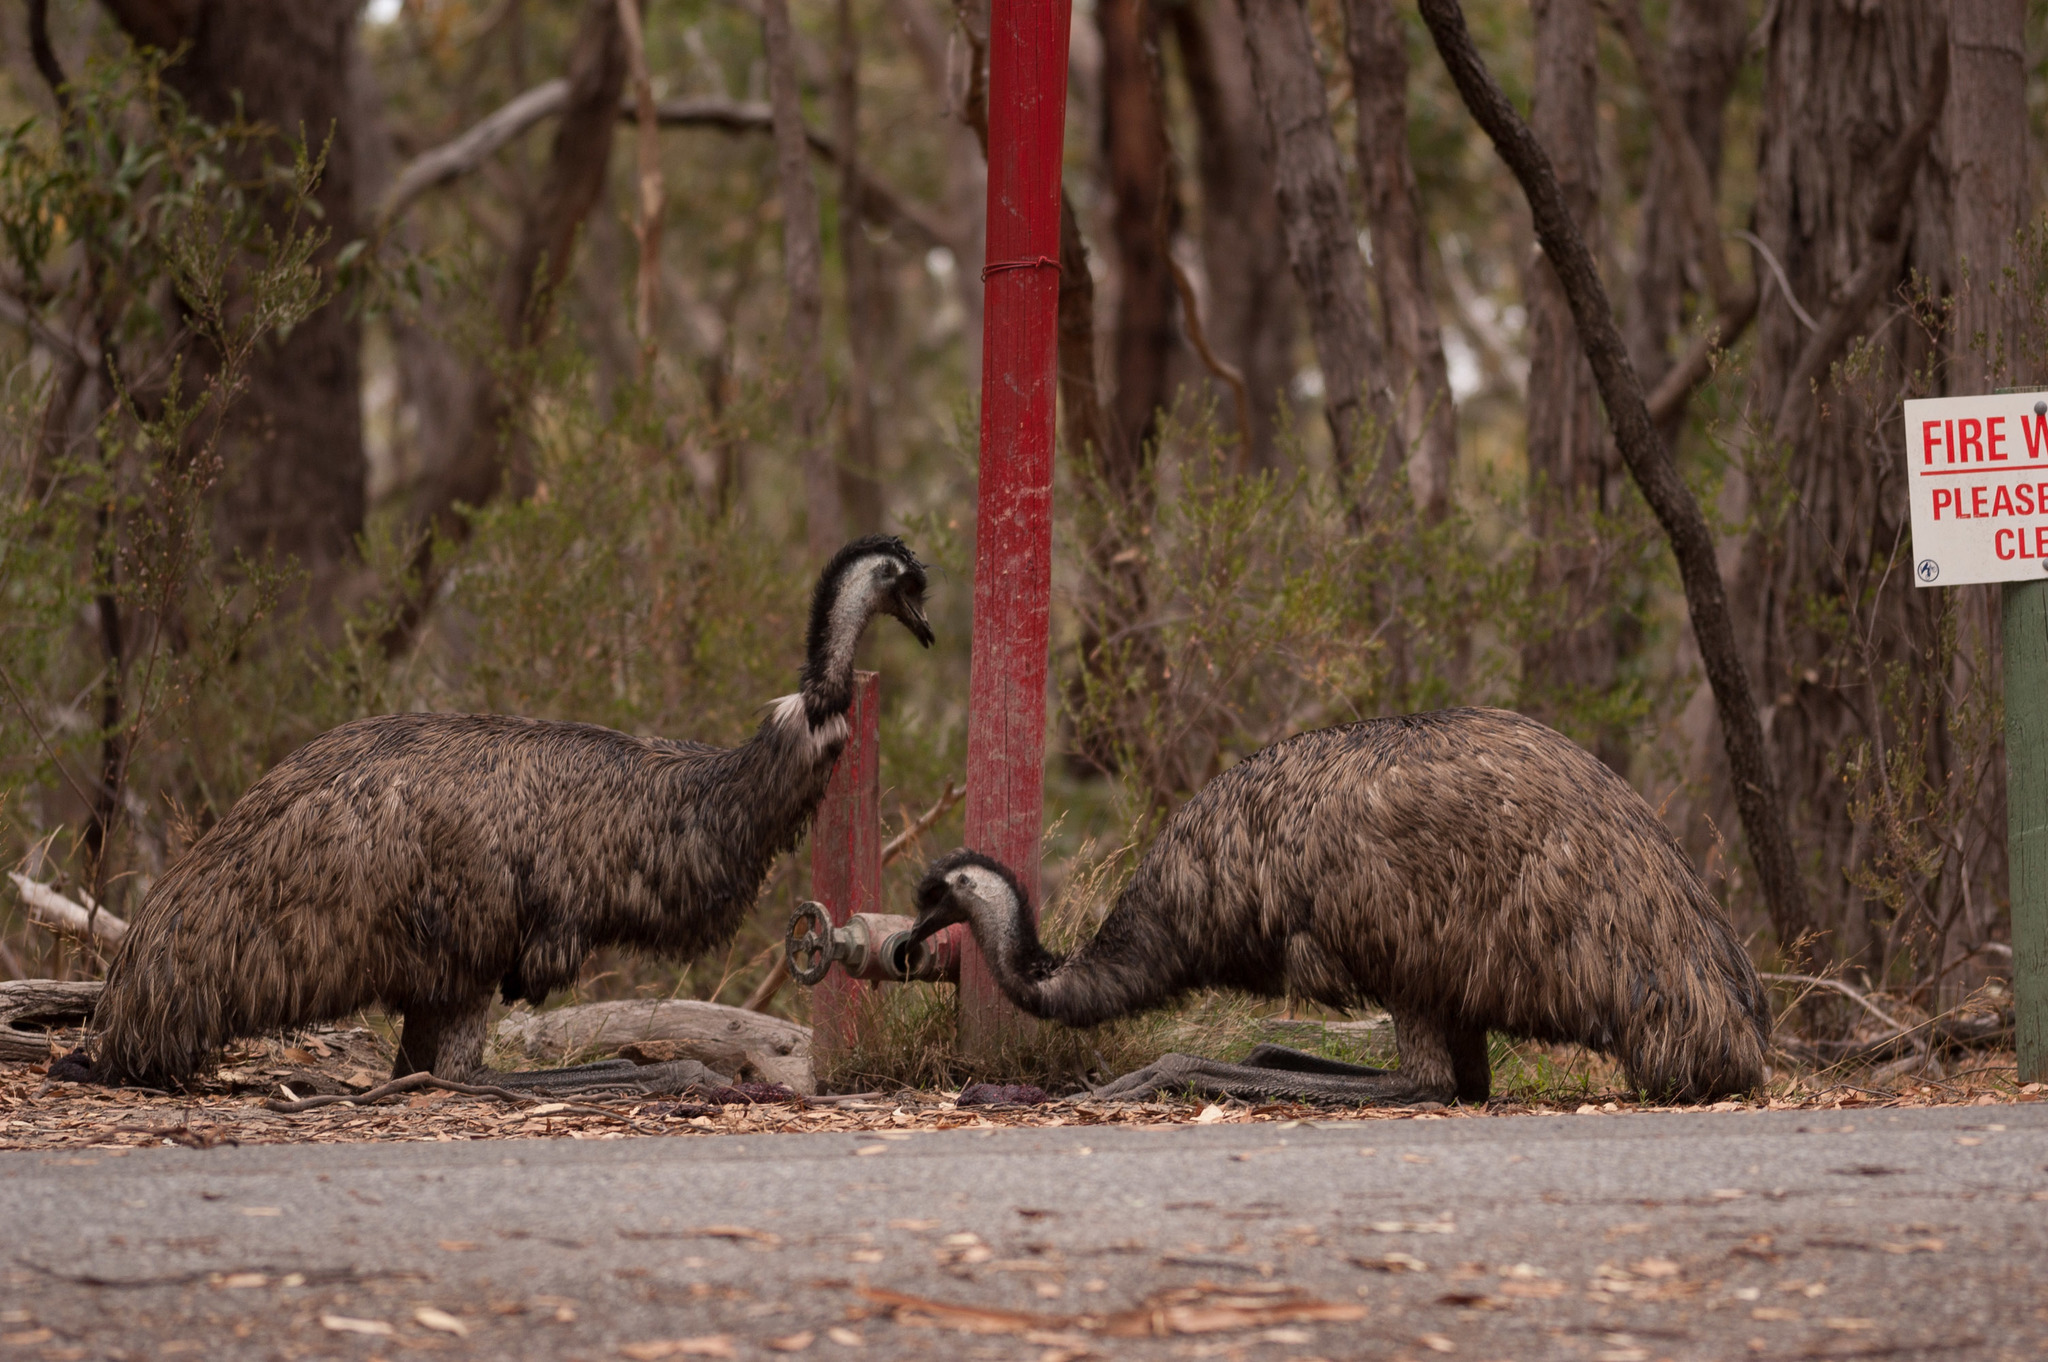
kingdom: Animalia
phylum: Chordata
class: Aves
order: Casuariiformes
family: Dromaiidae
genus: Dromaius
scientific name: Dromaius novaehollandiae
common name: Emu
